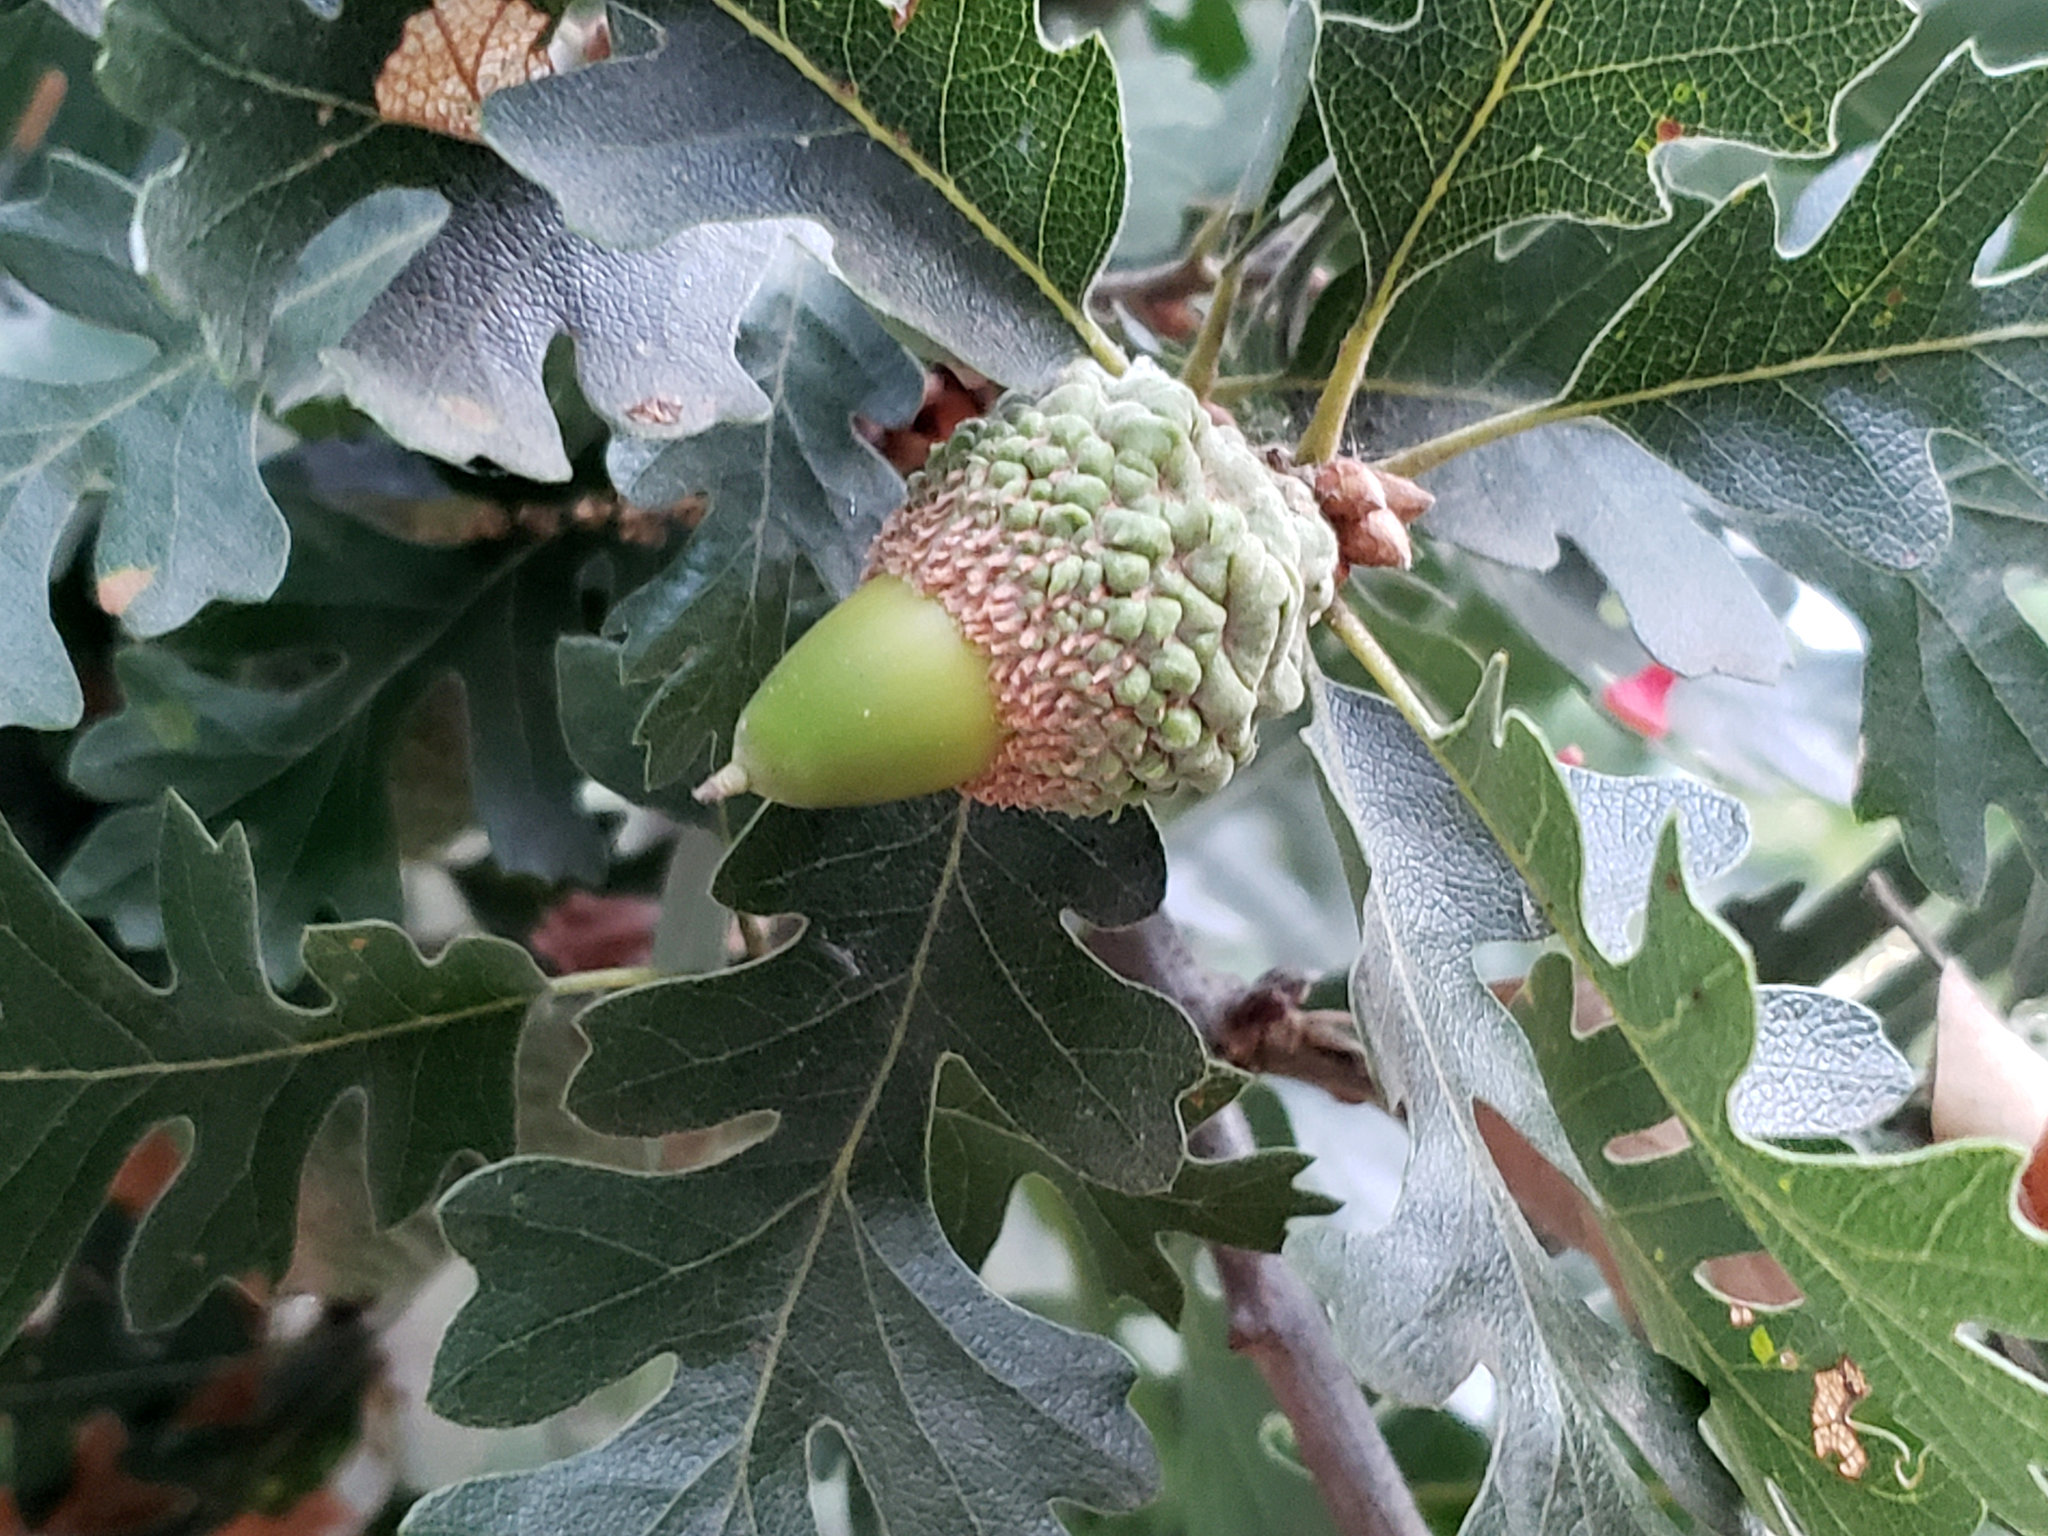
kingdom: Plantae
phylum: Tracheophyta
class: Magnoliopsida
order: Fagales
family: Fagaceae
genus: Quercus
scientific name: Quercus lobata
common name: Valley oak
